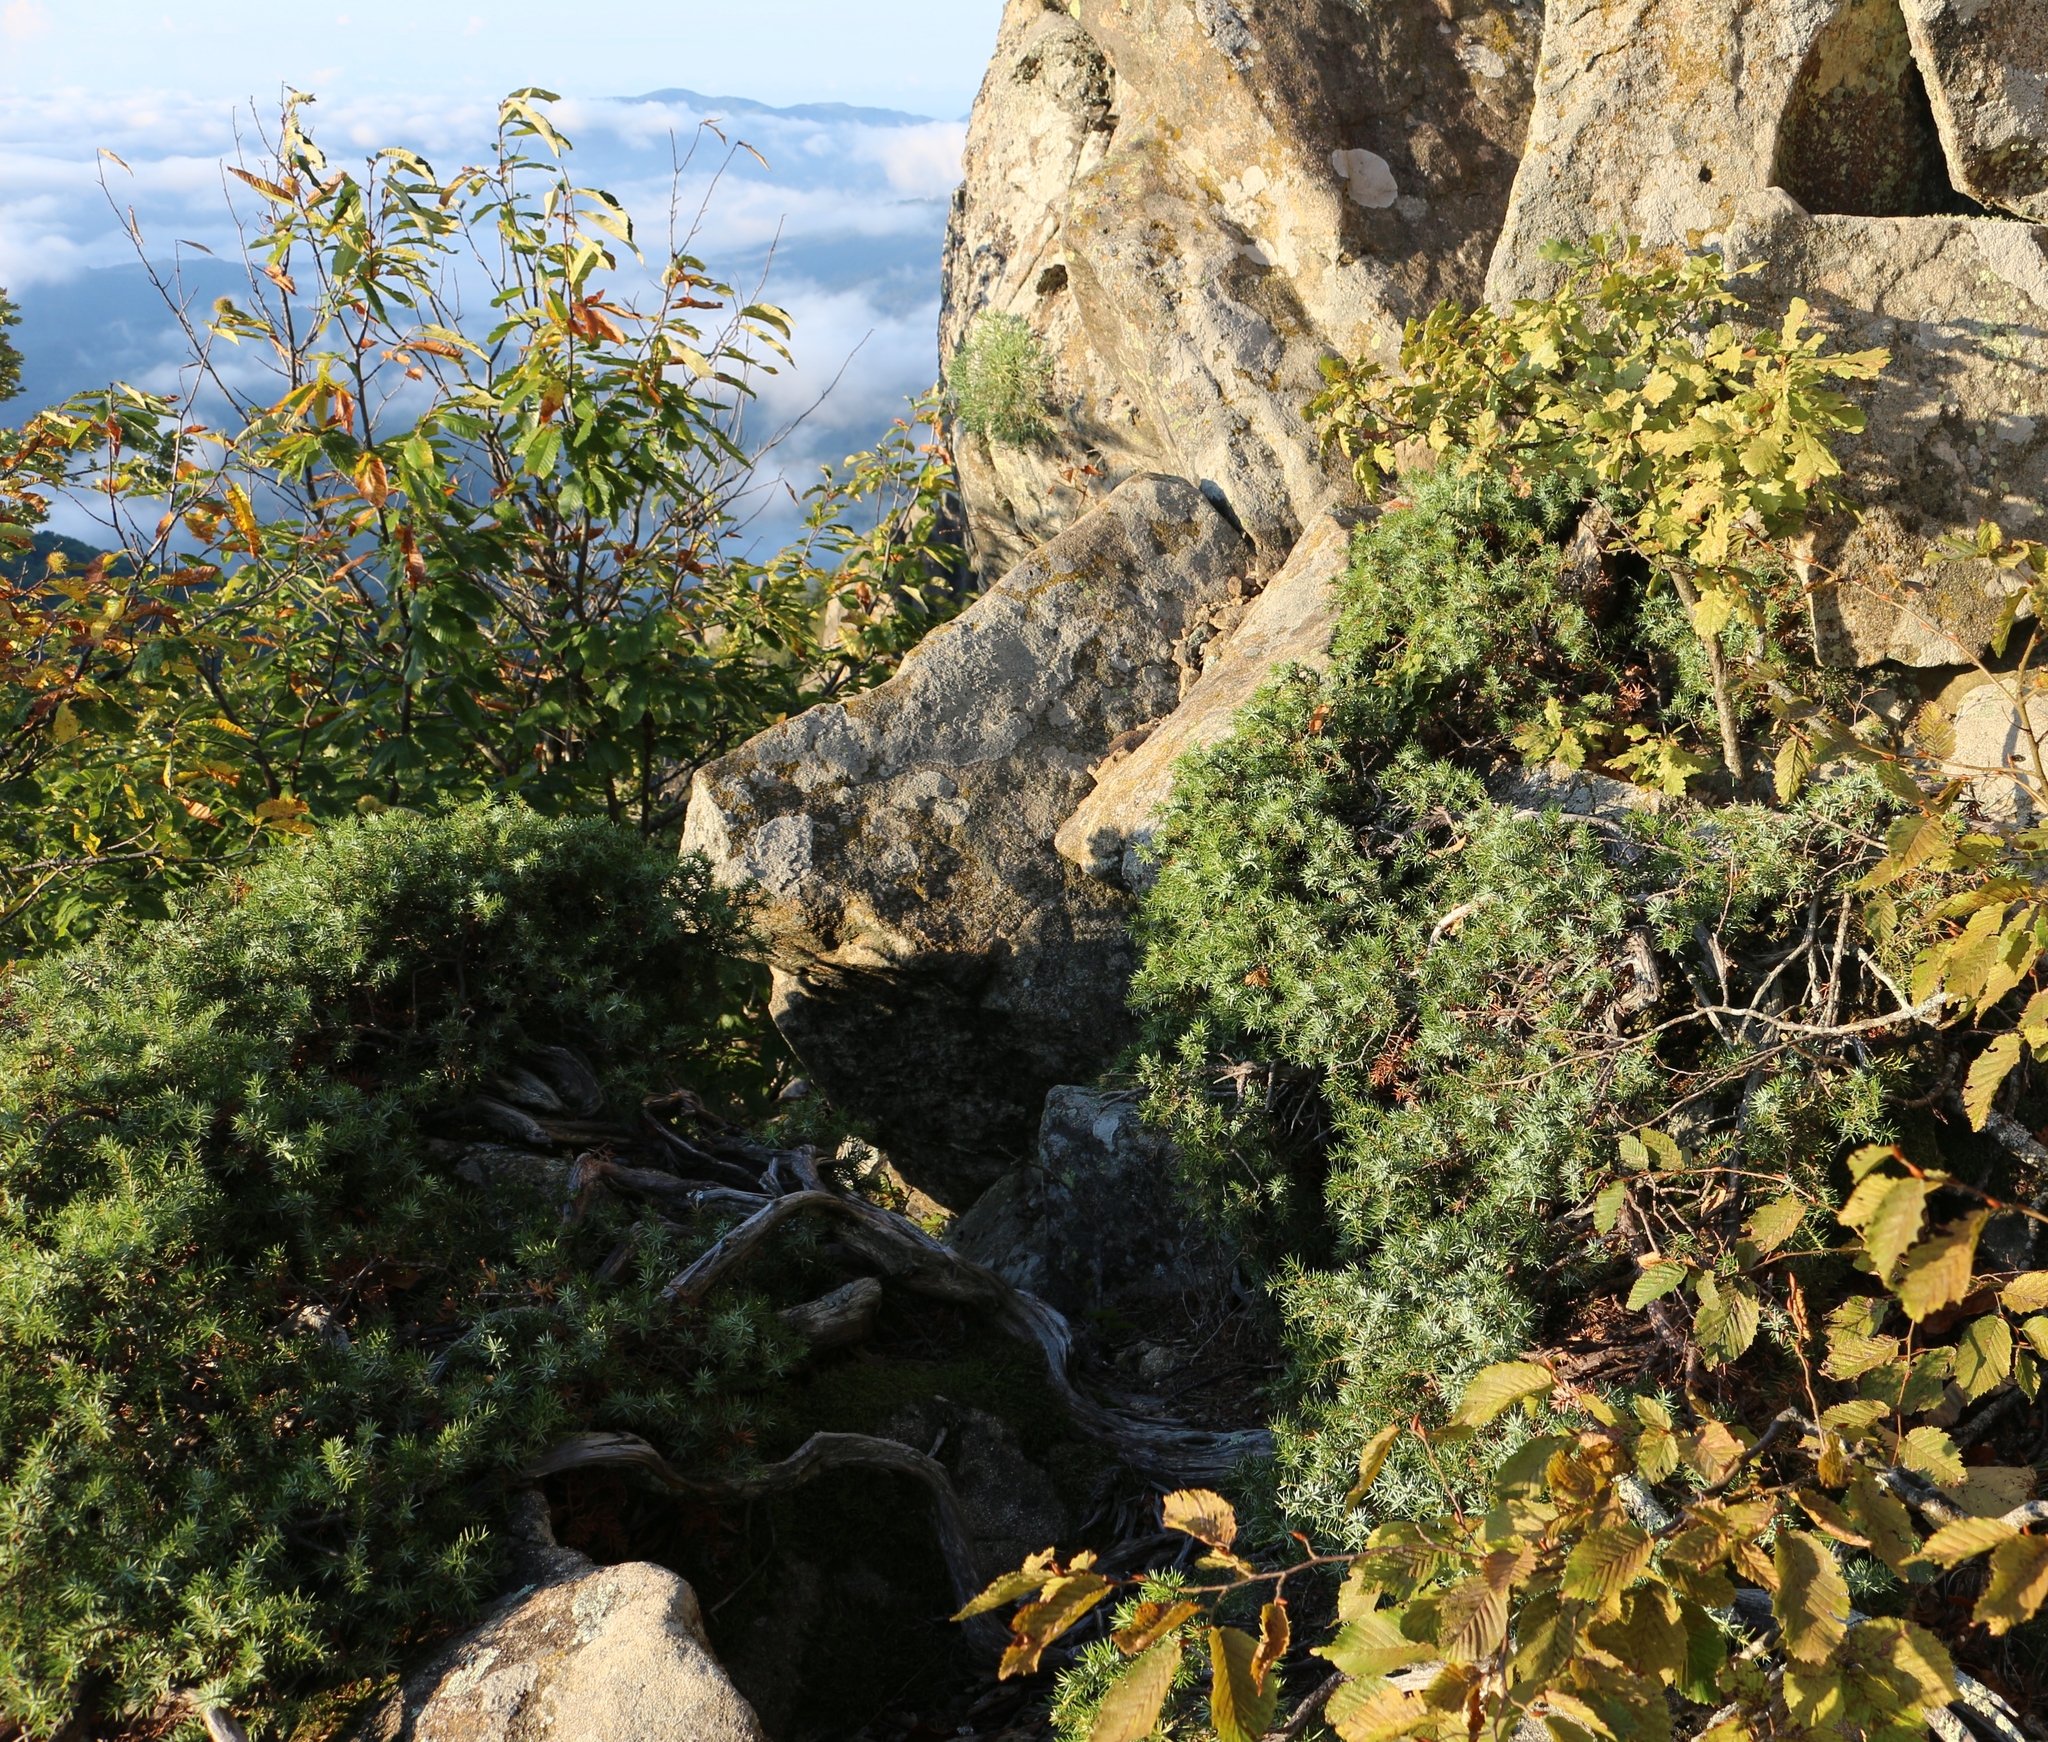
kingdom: Plantae
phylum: Tracheophyta
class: Pinopsida
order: Pinales
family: Cupressaceae
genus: Juniperus
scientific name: Juniperus communis
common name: Common juniper
